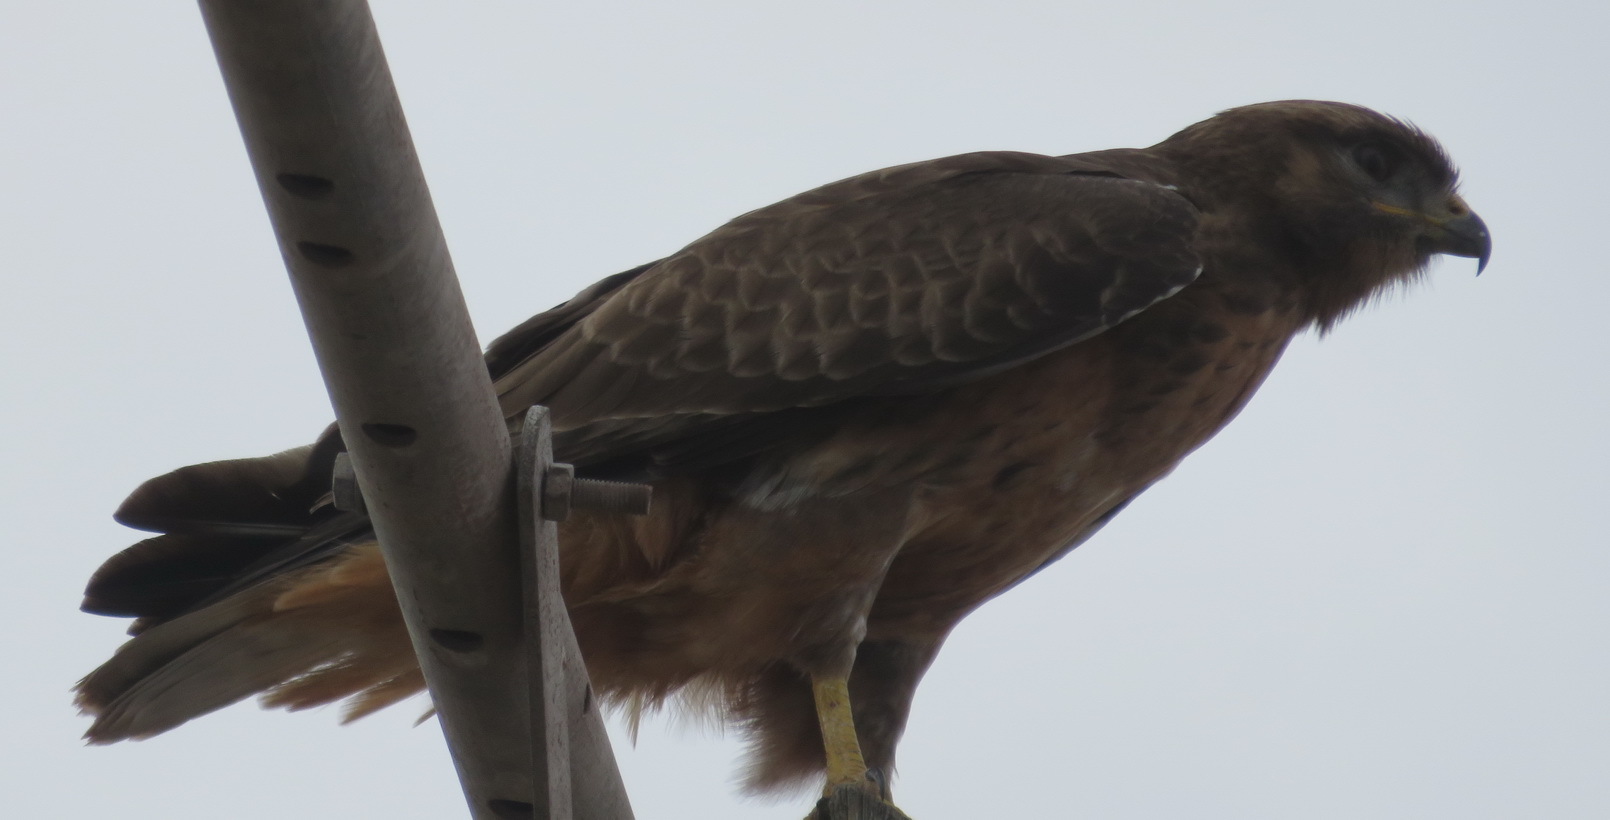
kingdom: Animalia
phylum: Chordata
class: Aves
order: Accipitriformes
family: Accipitridae
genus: Buteo
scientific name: Buteo buteo
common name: Common buzzard
